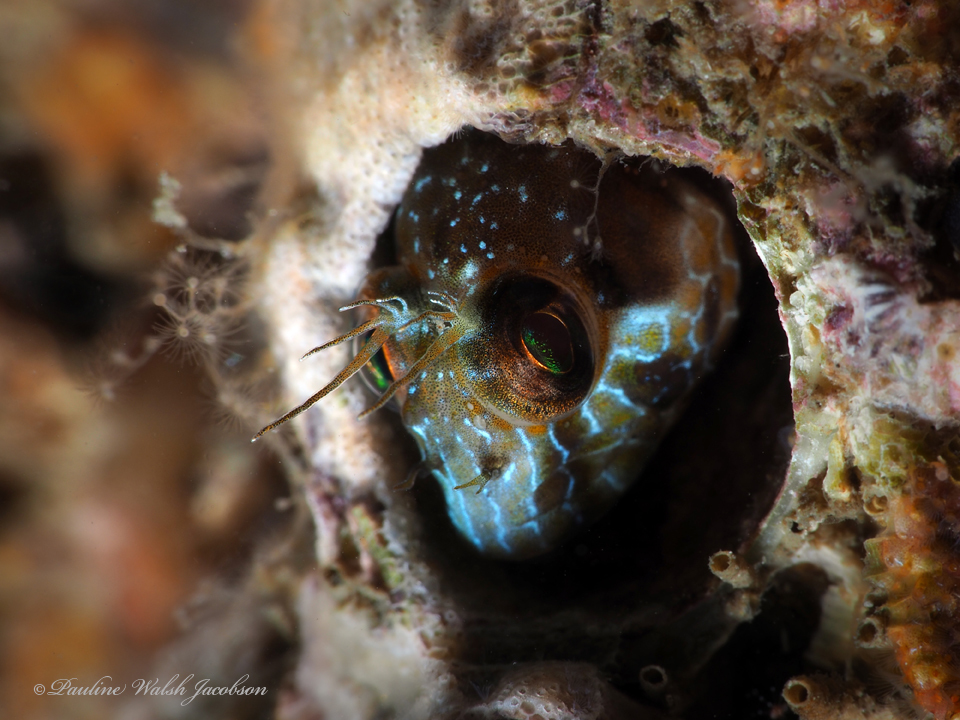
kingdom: Animalia
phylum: Chordata
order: Perciformes
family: Blenniidae
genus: Parablennius
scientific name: Parablennius marmoreus
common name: Seaweed blenny
